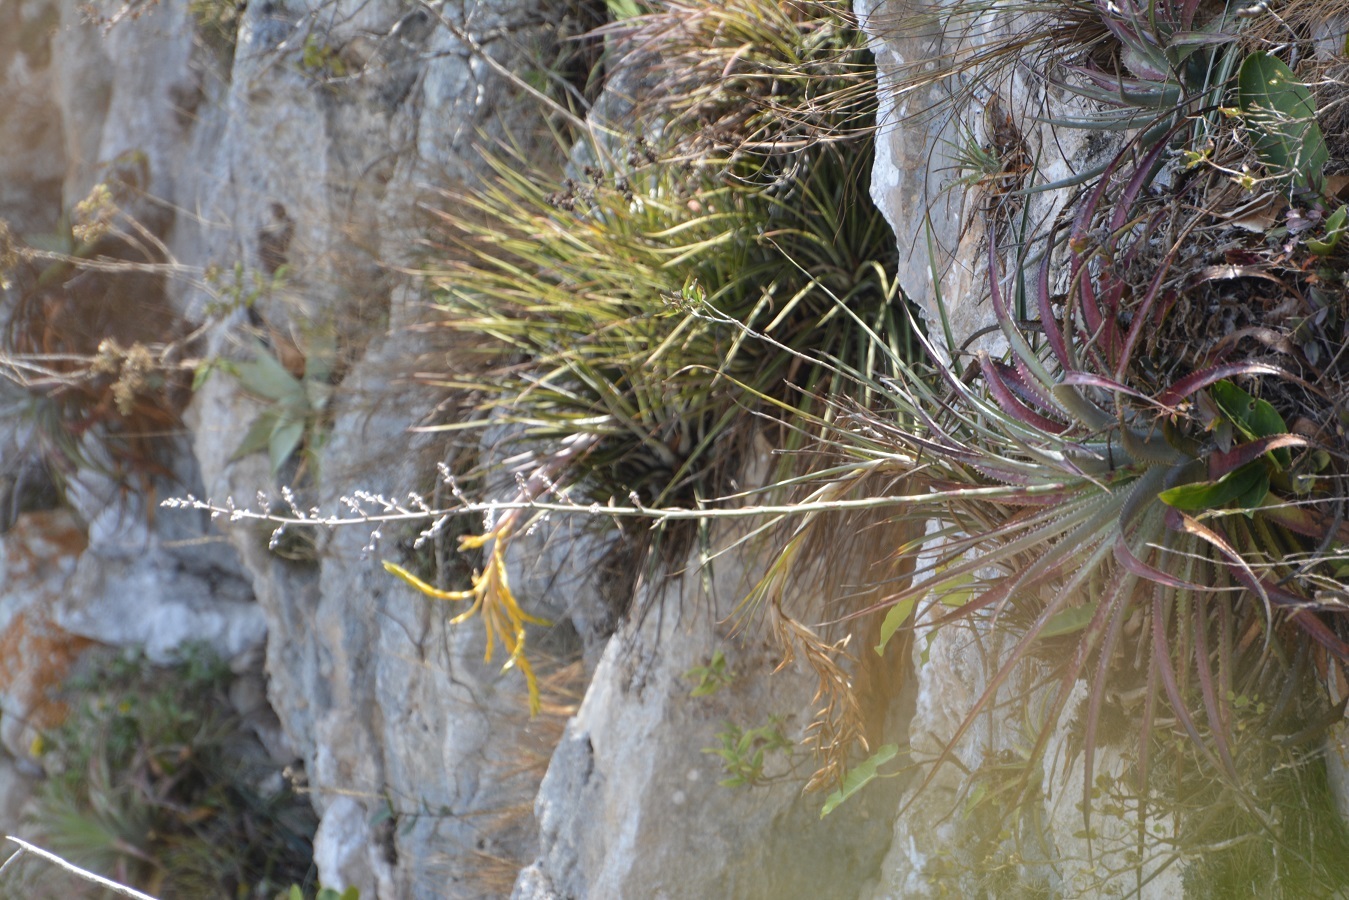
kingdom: Plantae
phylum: Tracheophyta
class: Liliopsida
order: Poales
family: Bromeliaceae
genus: Hechtia
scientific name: Hechtia glomerata
